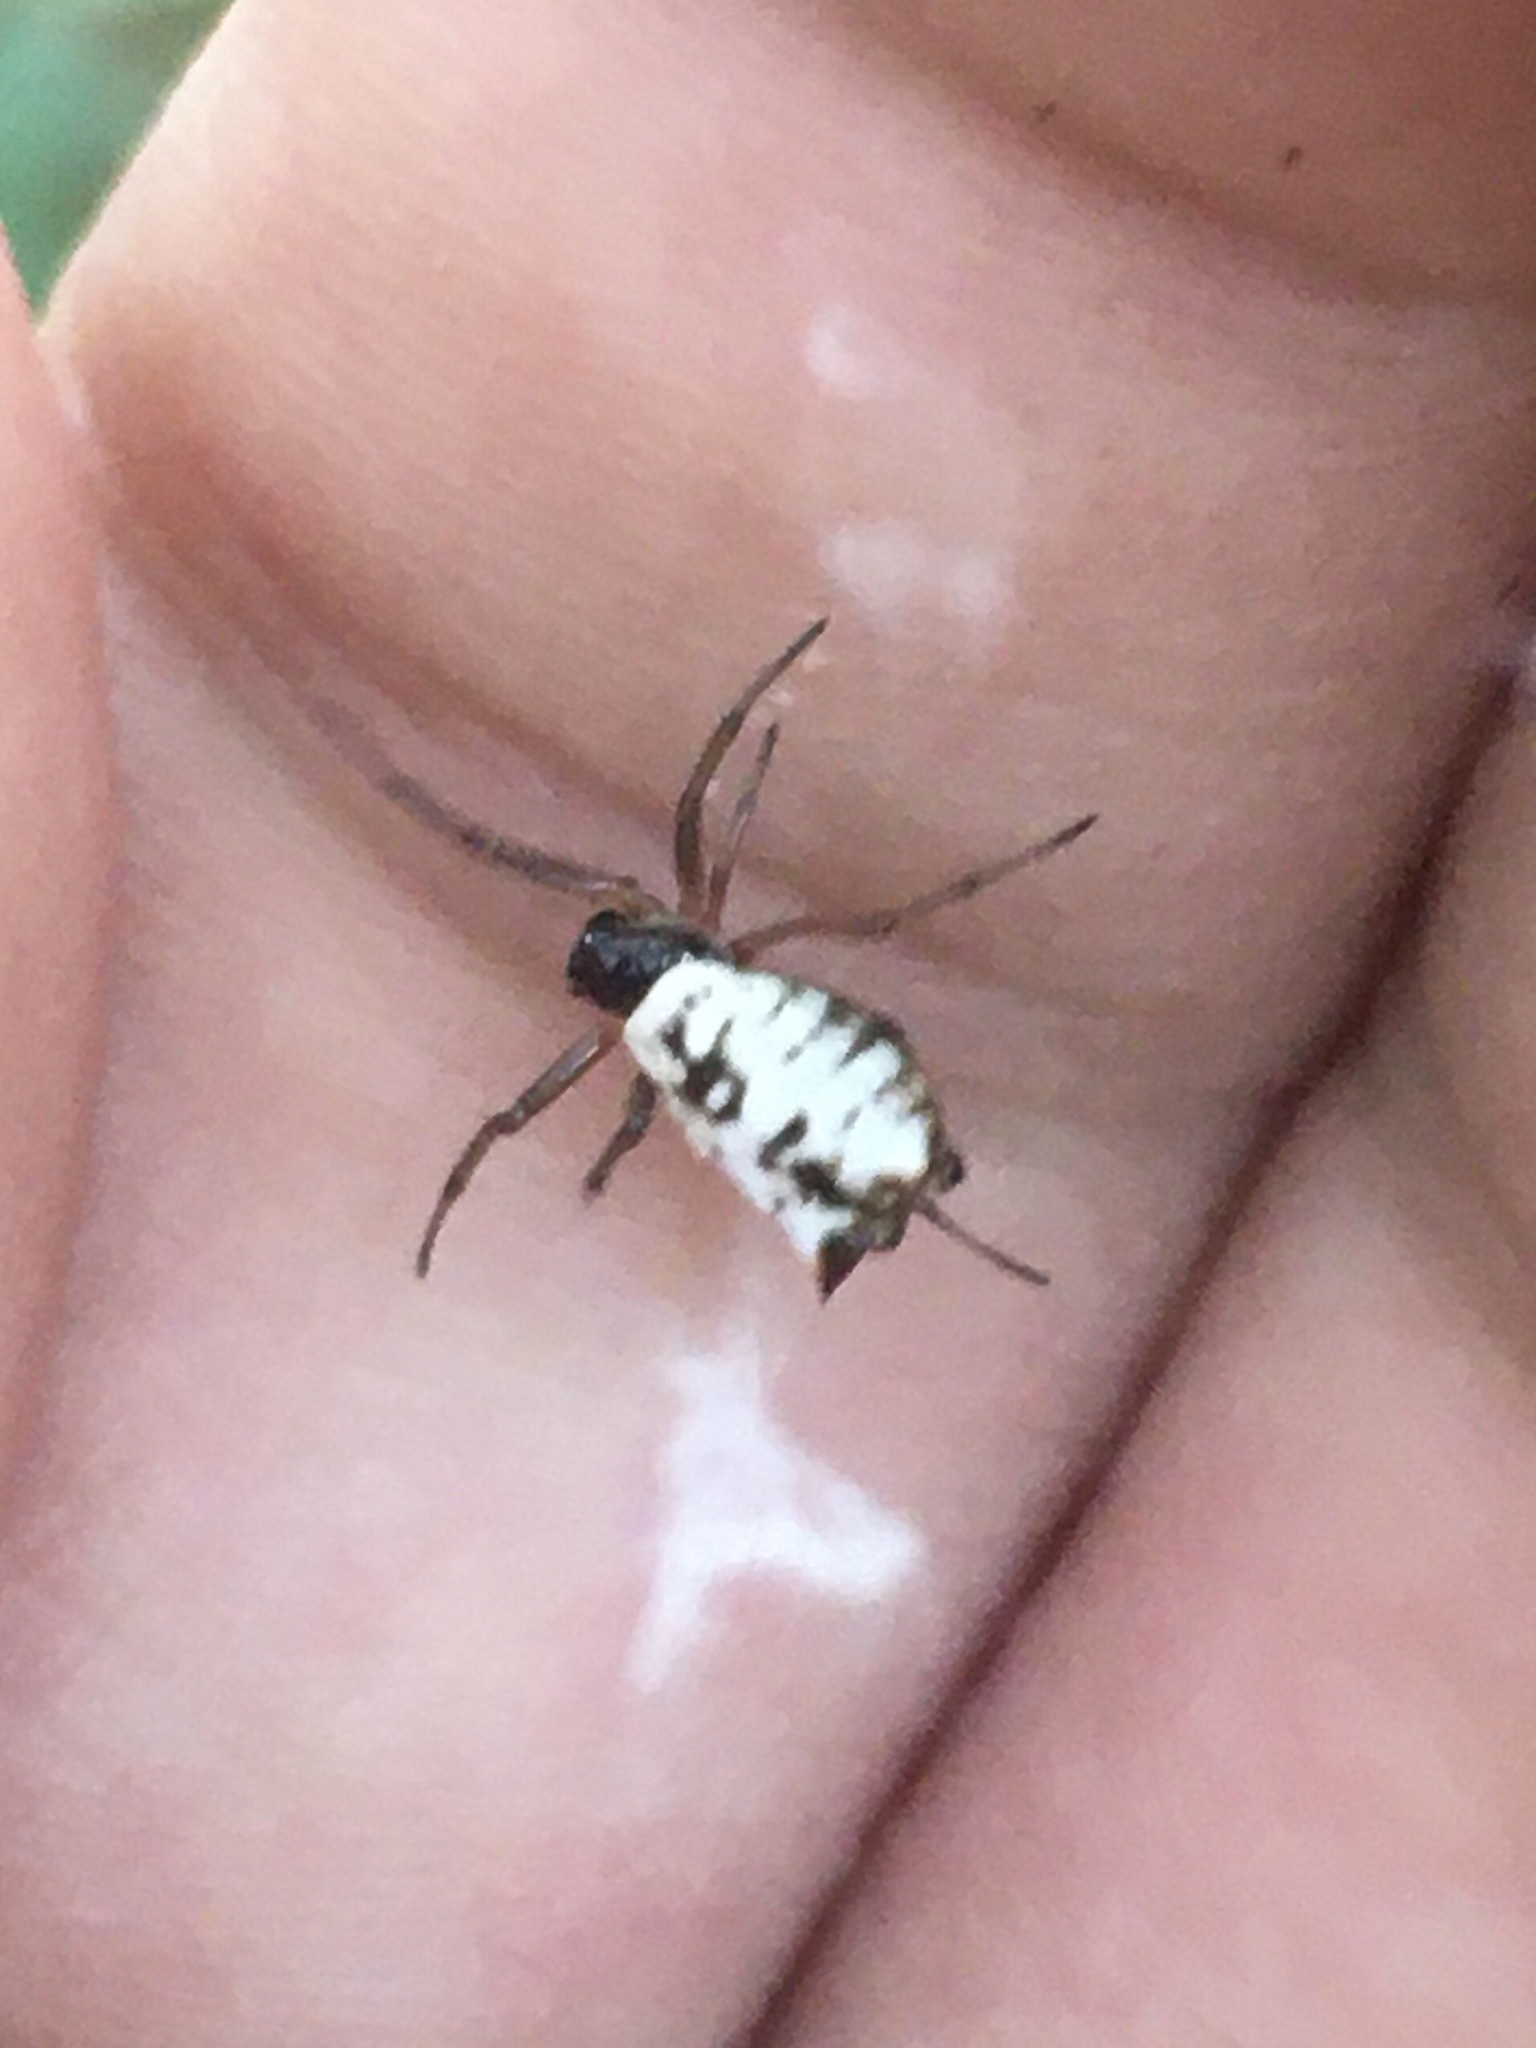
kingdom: Animalia
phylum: Arthropoda
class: Arachnida
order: Araneae
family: Araneidae
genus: Micrathena
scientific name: Micrathena mitrata
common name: Orb weavers
